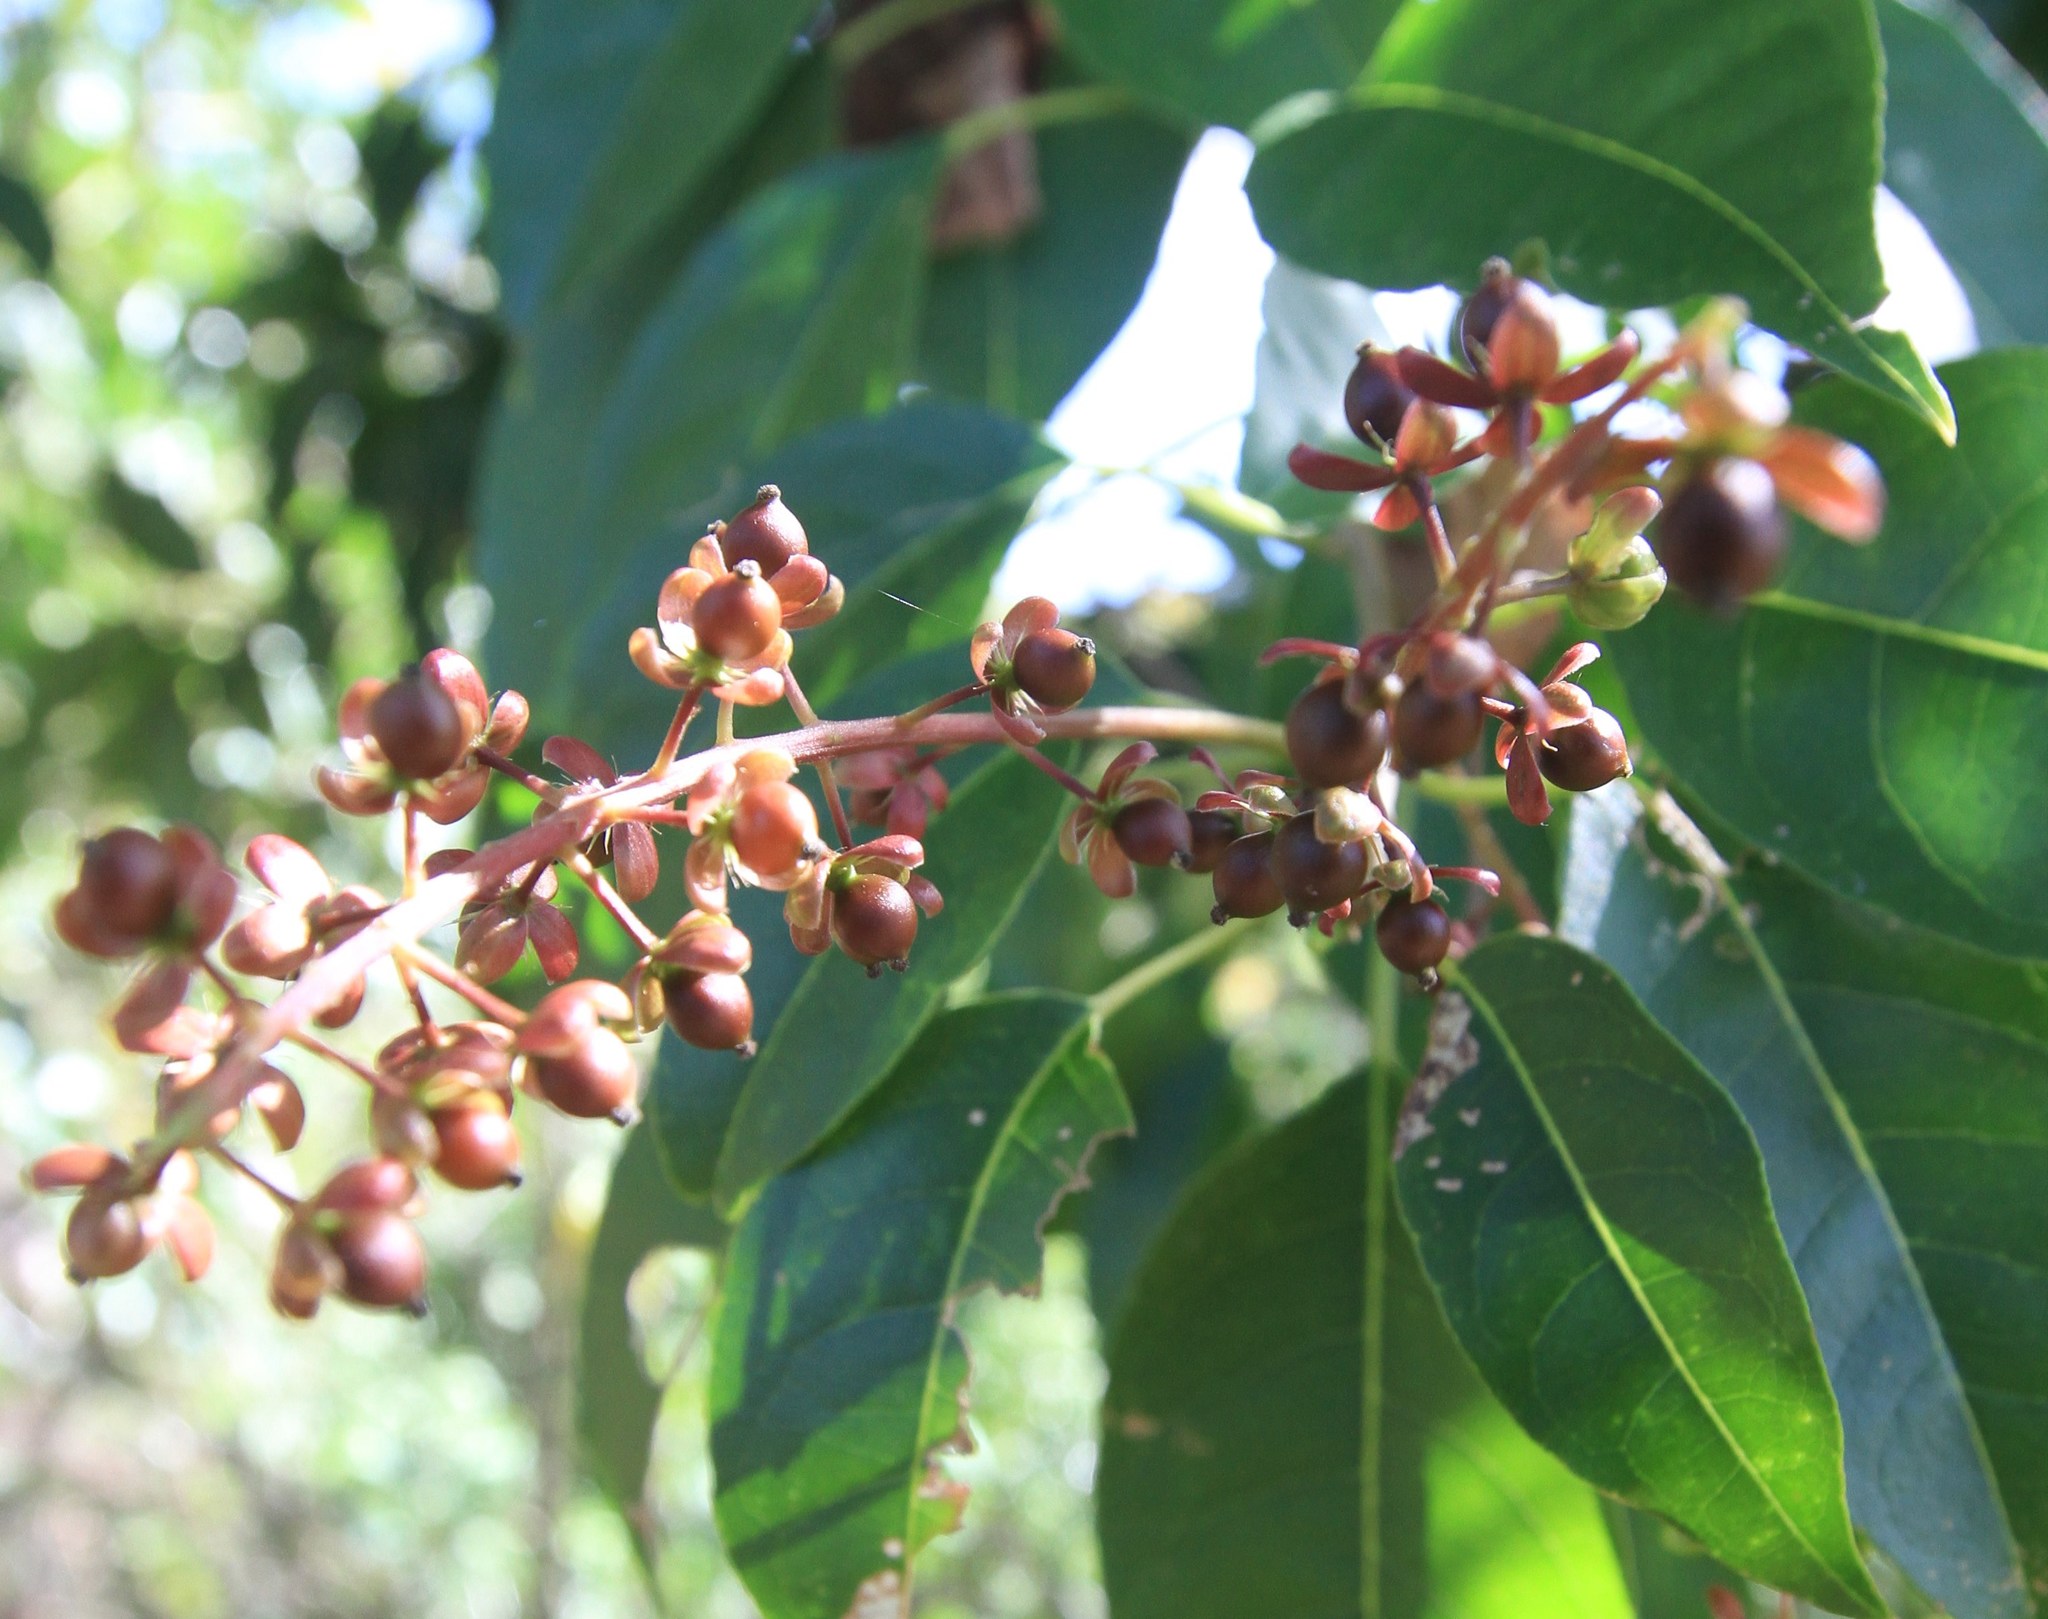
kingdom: Plantae
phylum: Tracheophyta
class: Magnoliopsida
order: Caryophyllales
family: Phytolaccaceae
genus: Trichostigma
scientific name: Trichostigma octandrum
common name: Basket wiss
